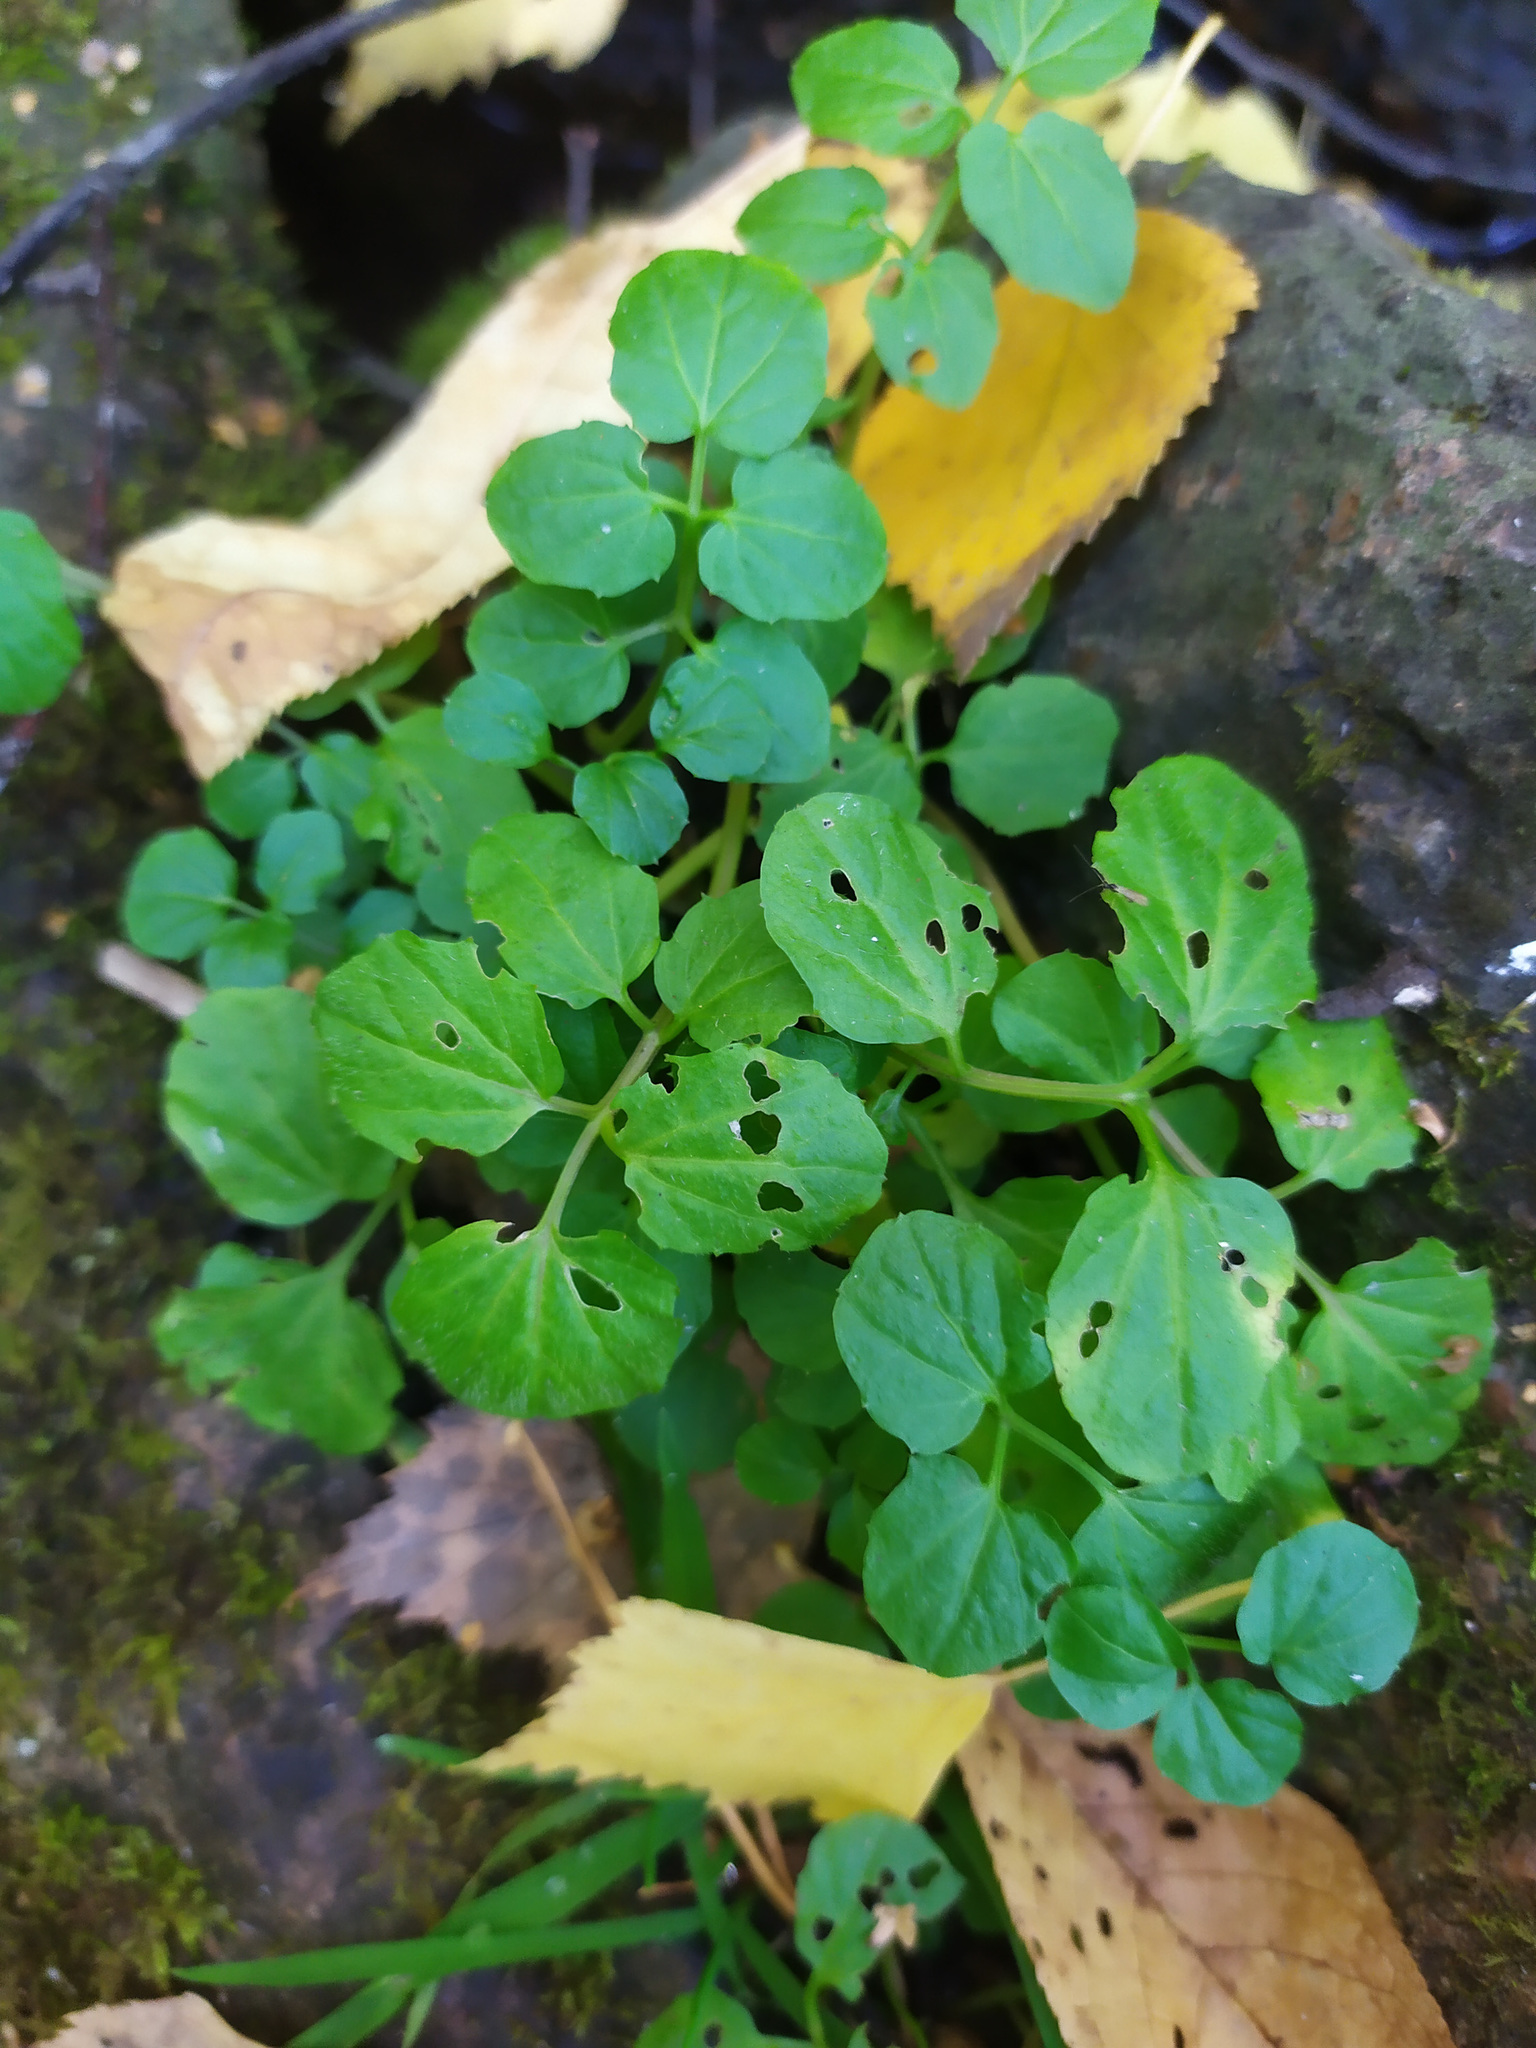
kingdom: Plantae
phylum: Tracheophyta
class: Magnoliopsida
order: Brassicales
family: Brassicaceae
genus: Cardamine
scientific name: Cardamine amara
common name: Large bitter-cress
